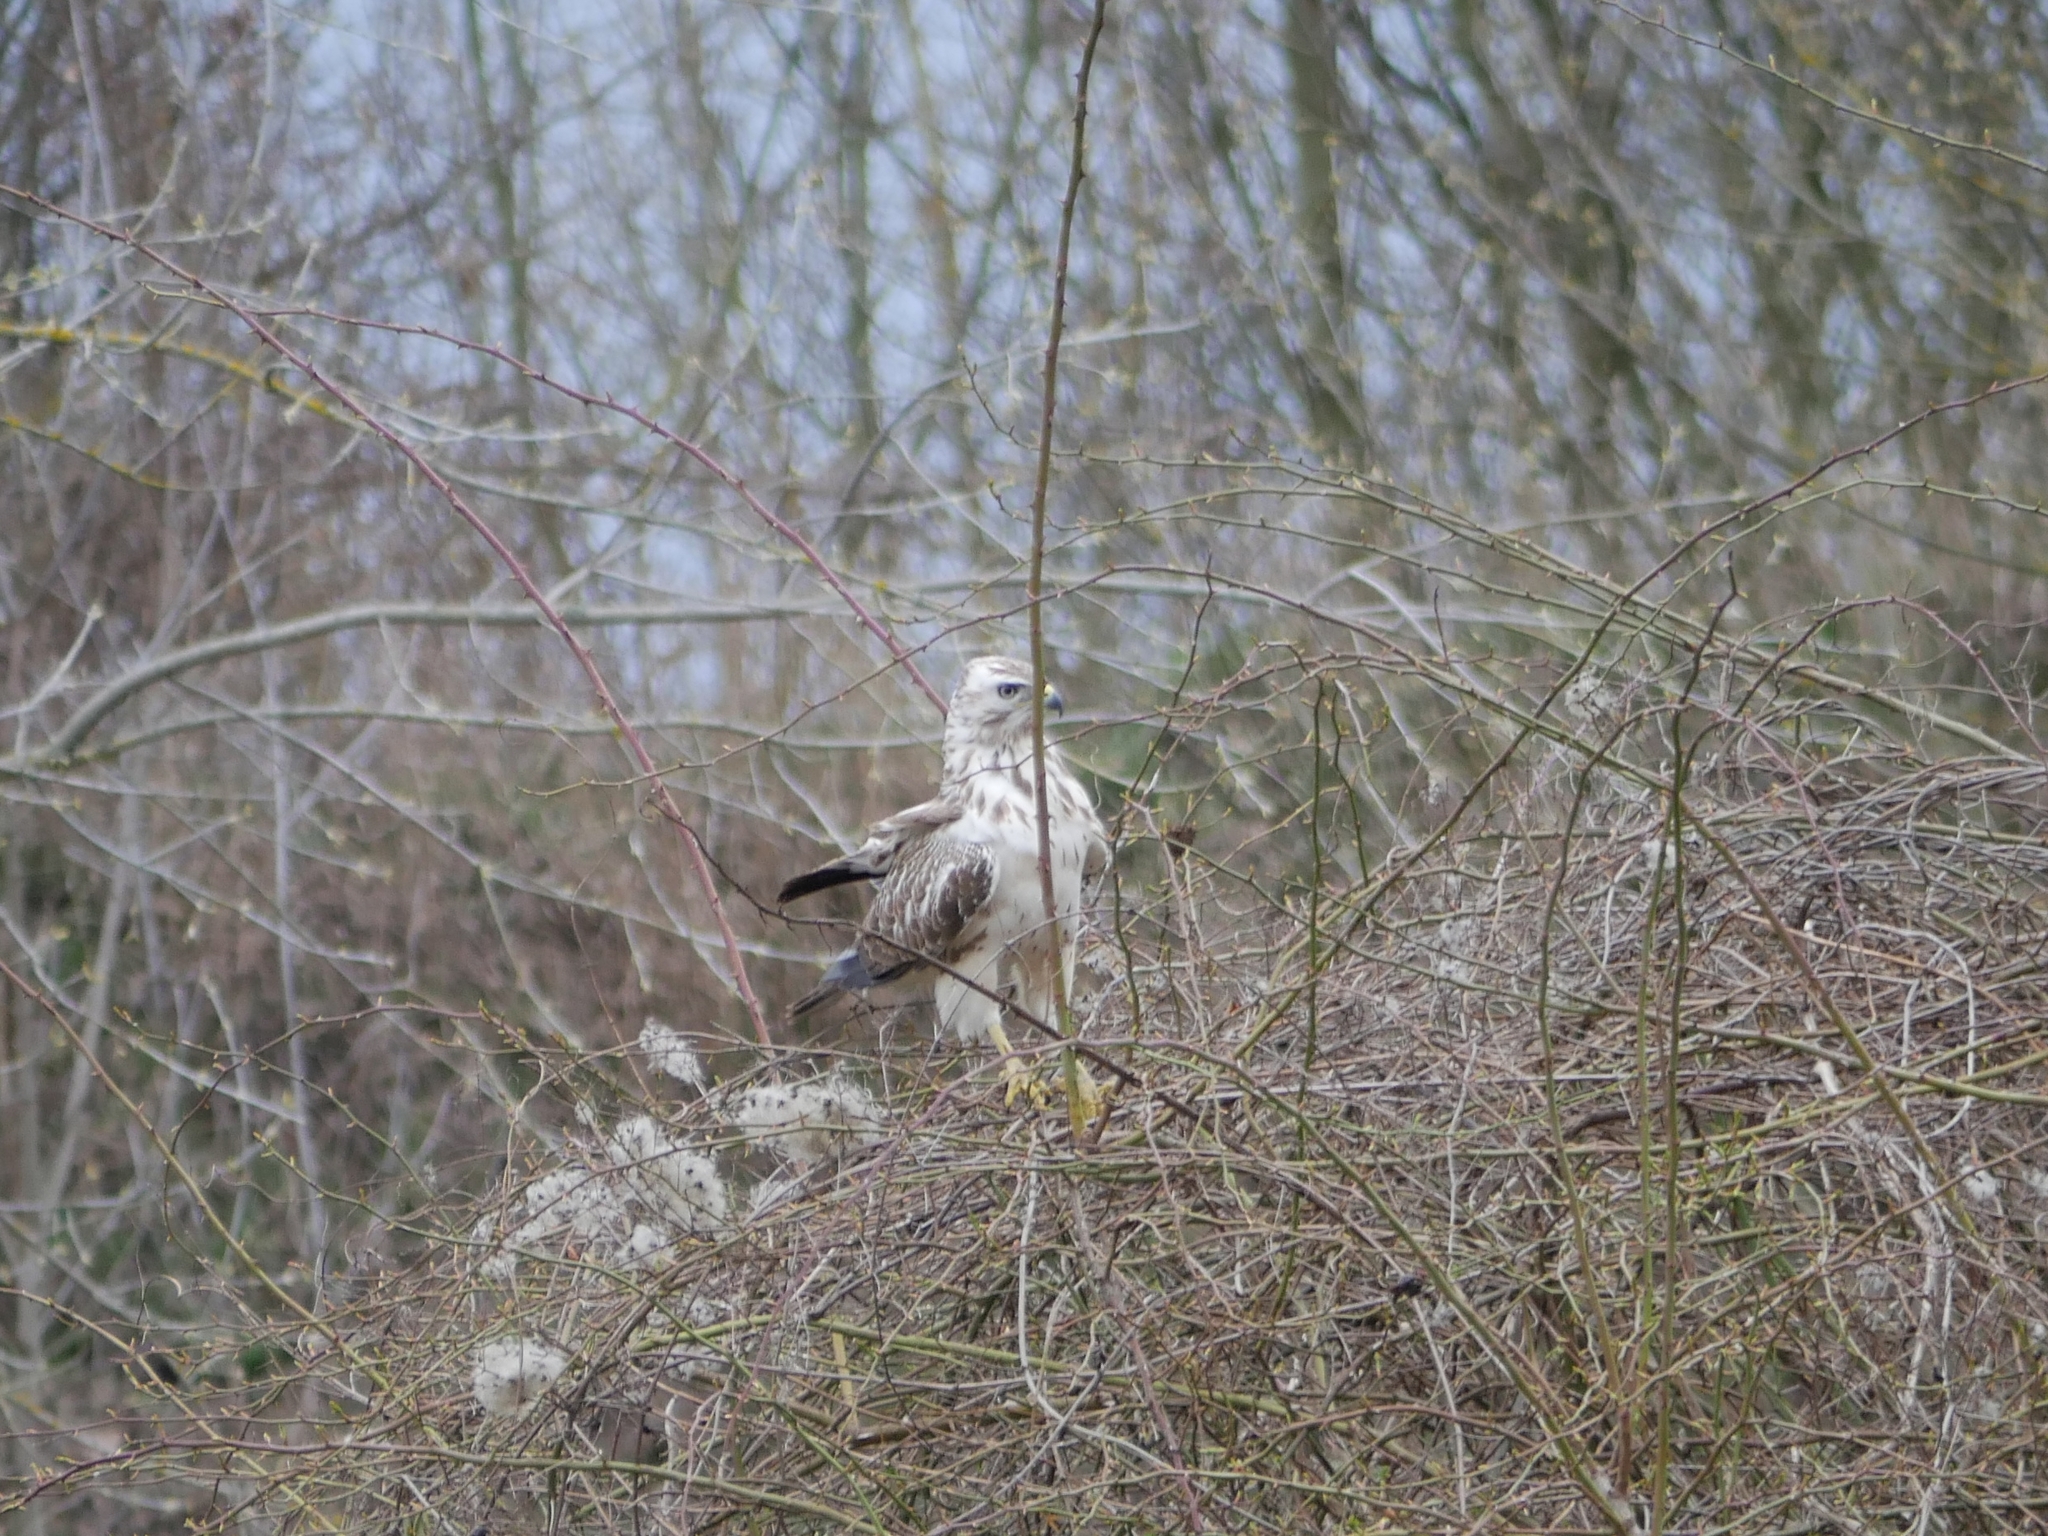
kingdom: Animalia
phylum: Chordata
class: Aves
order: Accipitriformes
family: Accipitridae
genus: Buteo
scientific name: Buteo buteo
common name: Common buzzard
